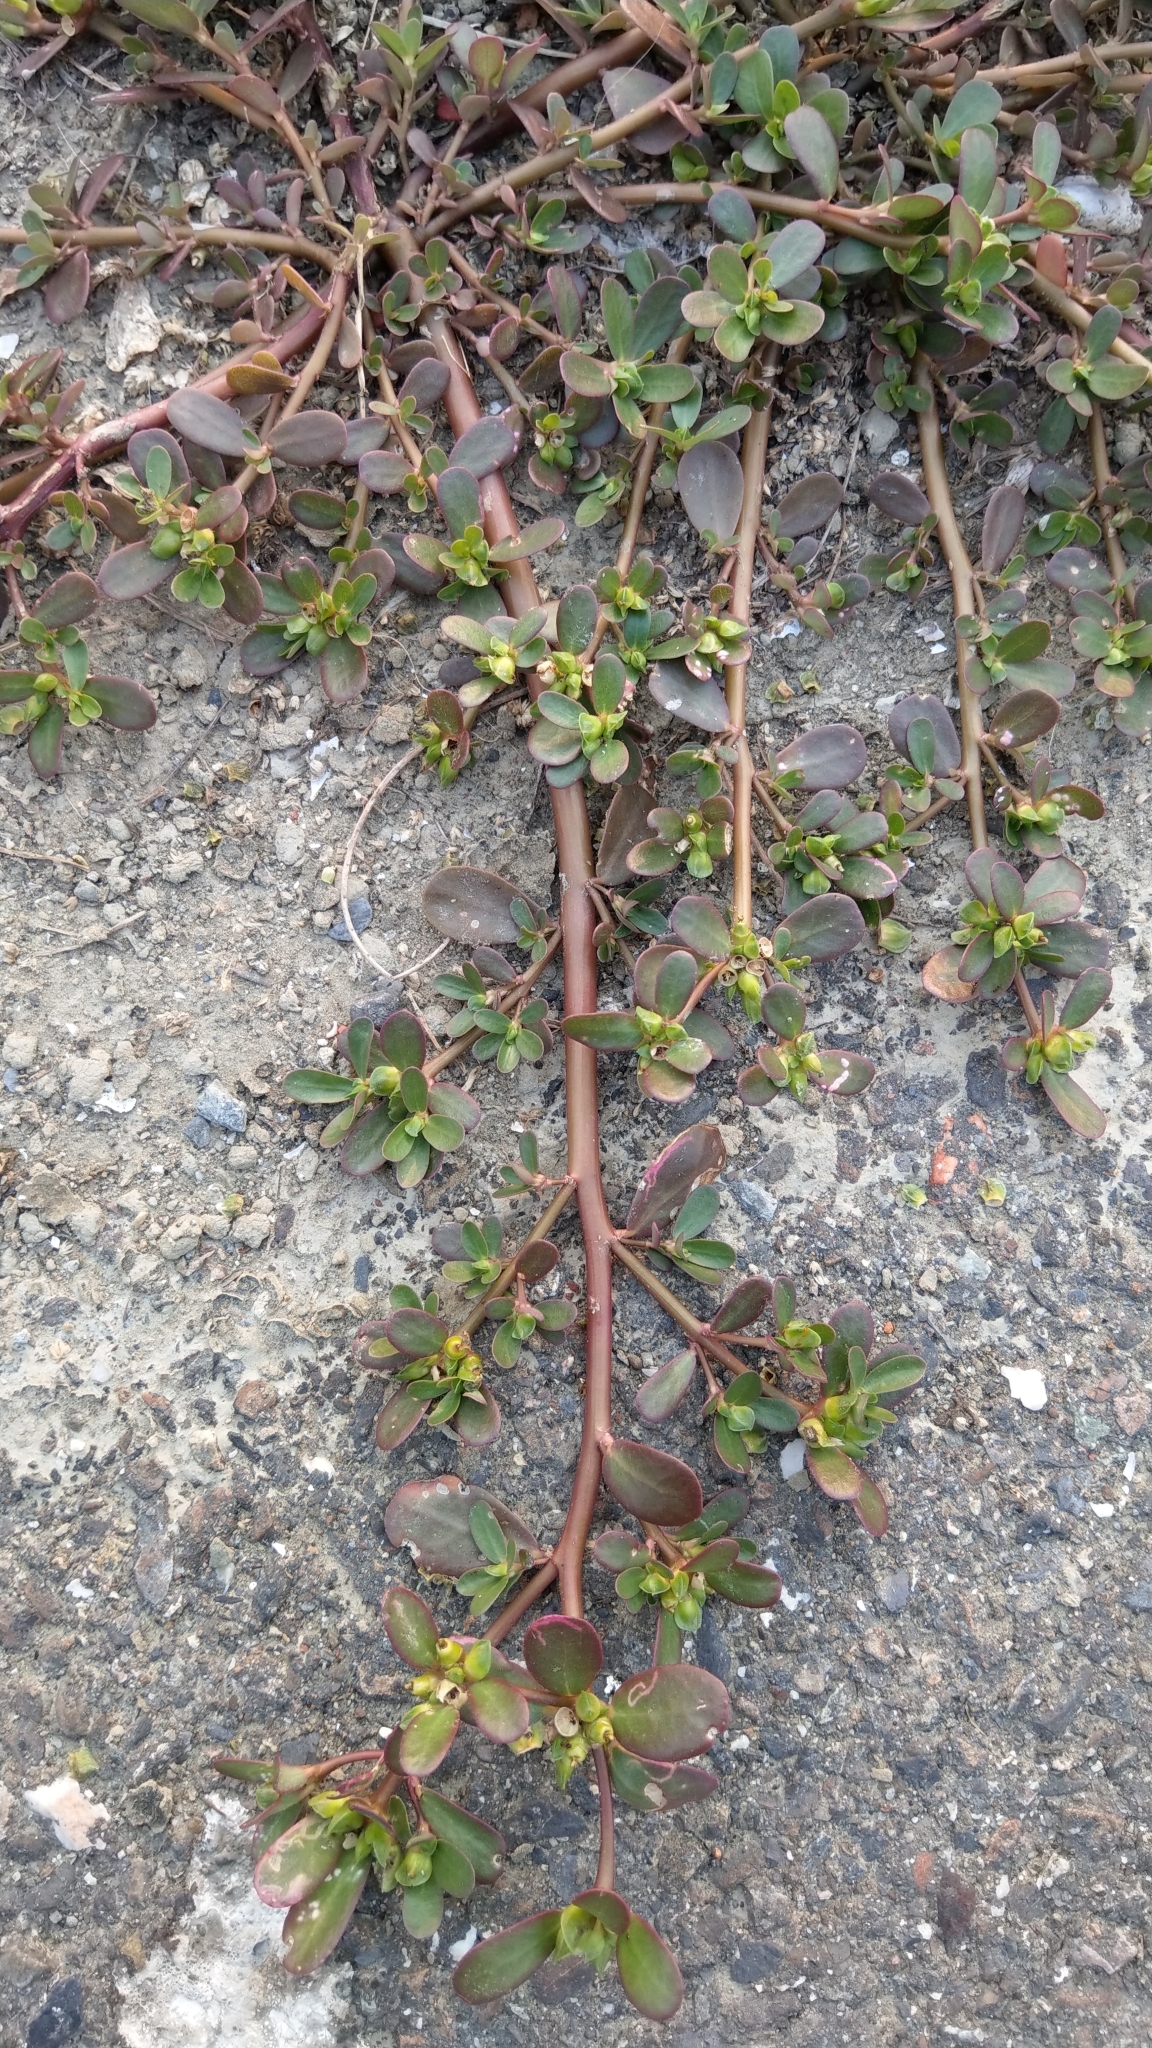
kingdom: Plantae
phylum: Tracheophyta
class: Magnoliopsida
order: Caryophyllales
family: Portulacaceae
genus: Portulaca
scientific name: Portulaca oleracea
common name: Common purslane
